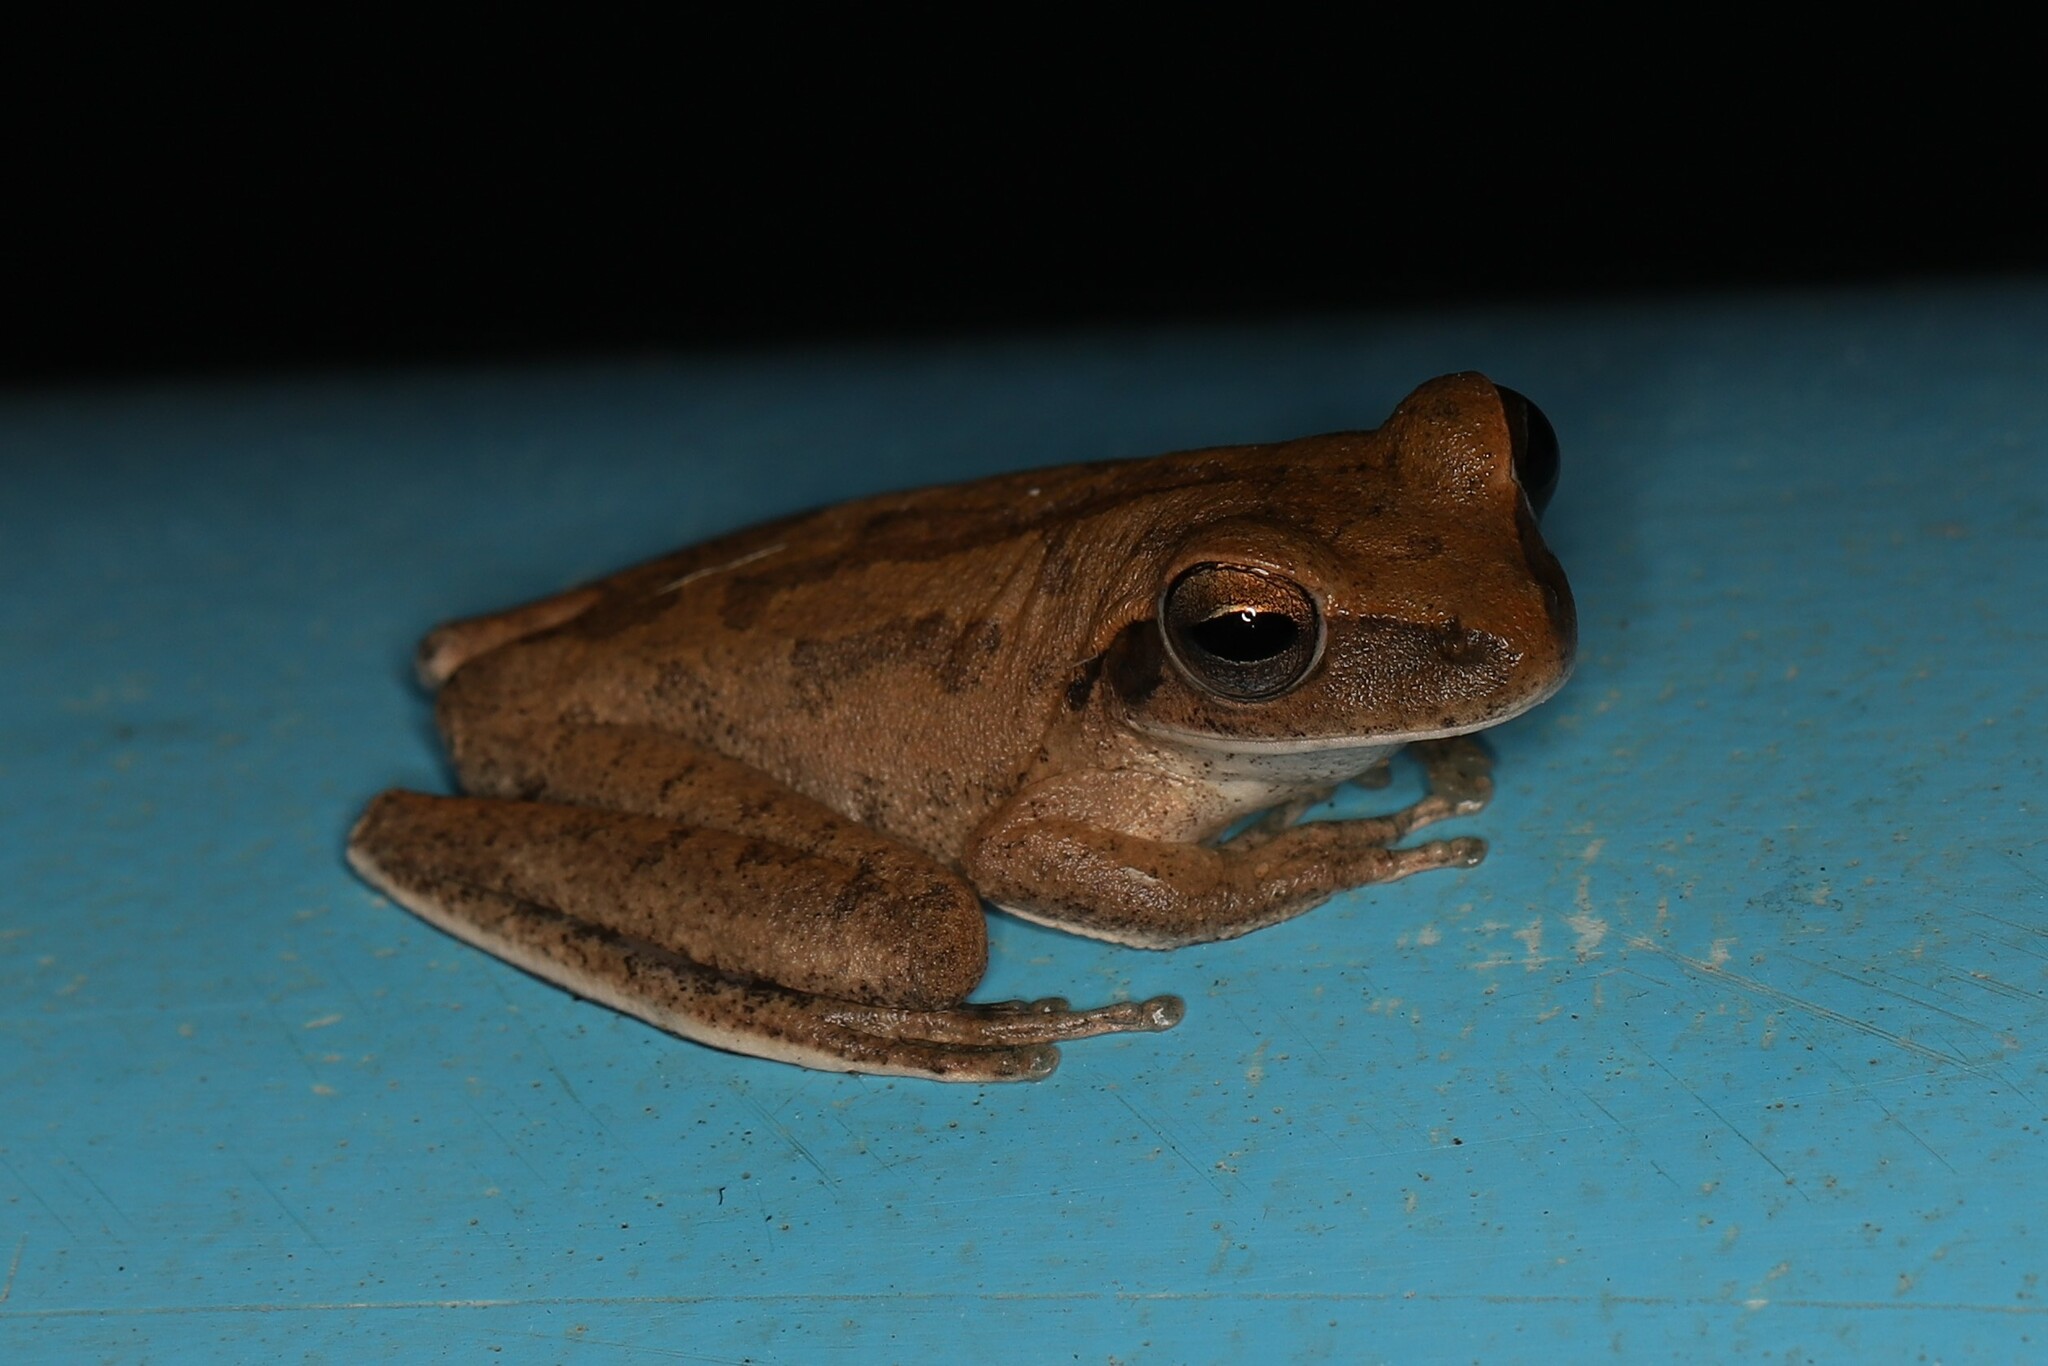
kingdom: Animalia
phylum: Chordata
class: Amphibia
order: Anura
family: Hylidae
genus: Boana
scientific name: Boana raniceps
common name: Chaco treefrog
